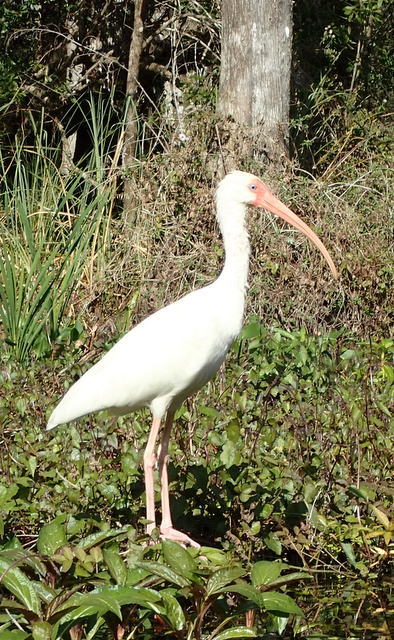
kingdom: Animalia
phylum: Chordata
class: Aves
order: Pelecaniformes
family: Threskiornithidae
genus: Eudocimus
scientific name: Eudocimus albus
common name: White ibis
